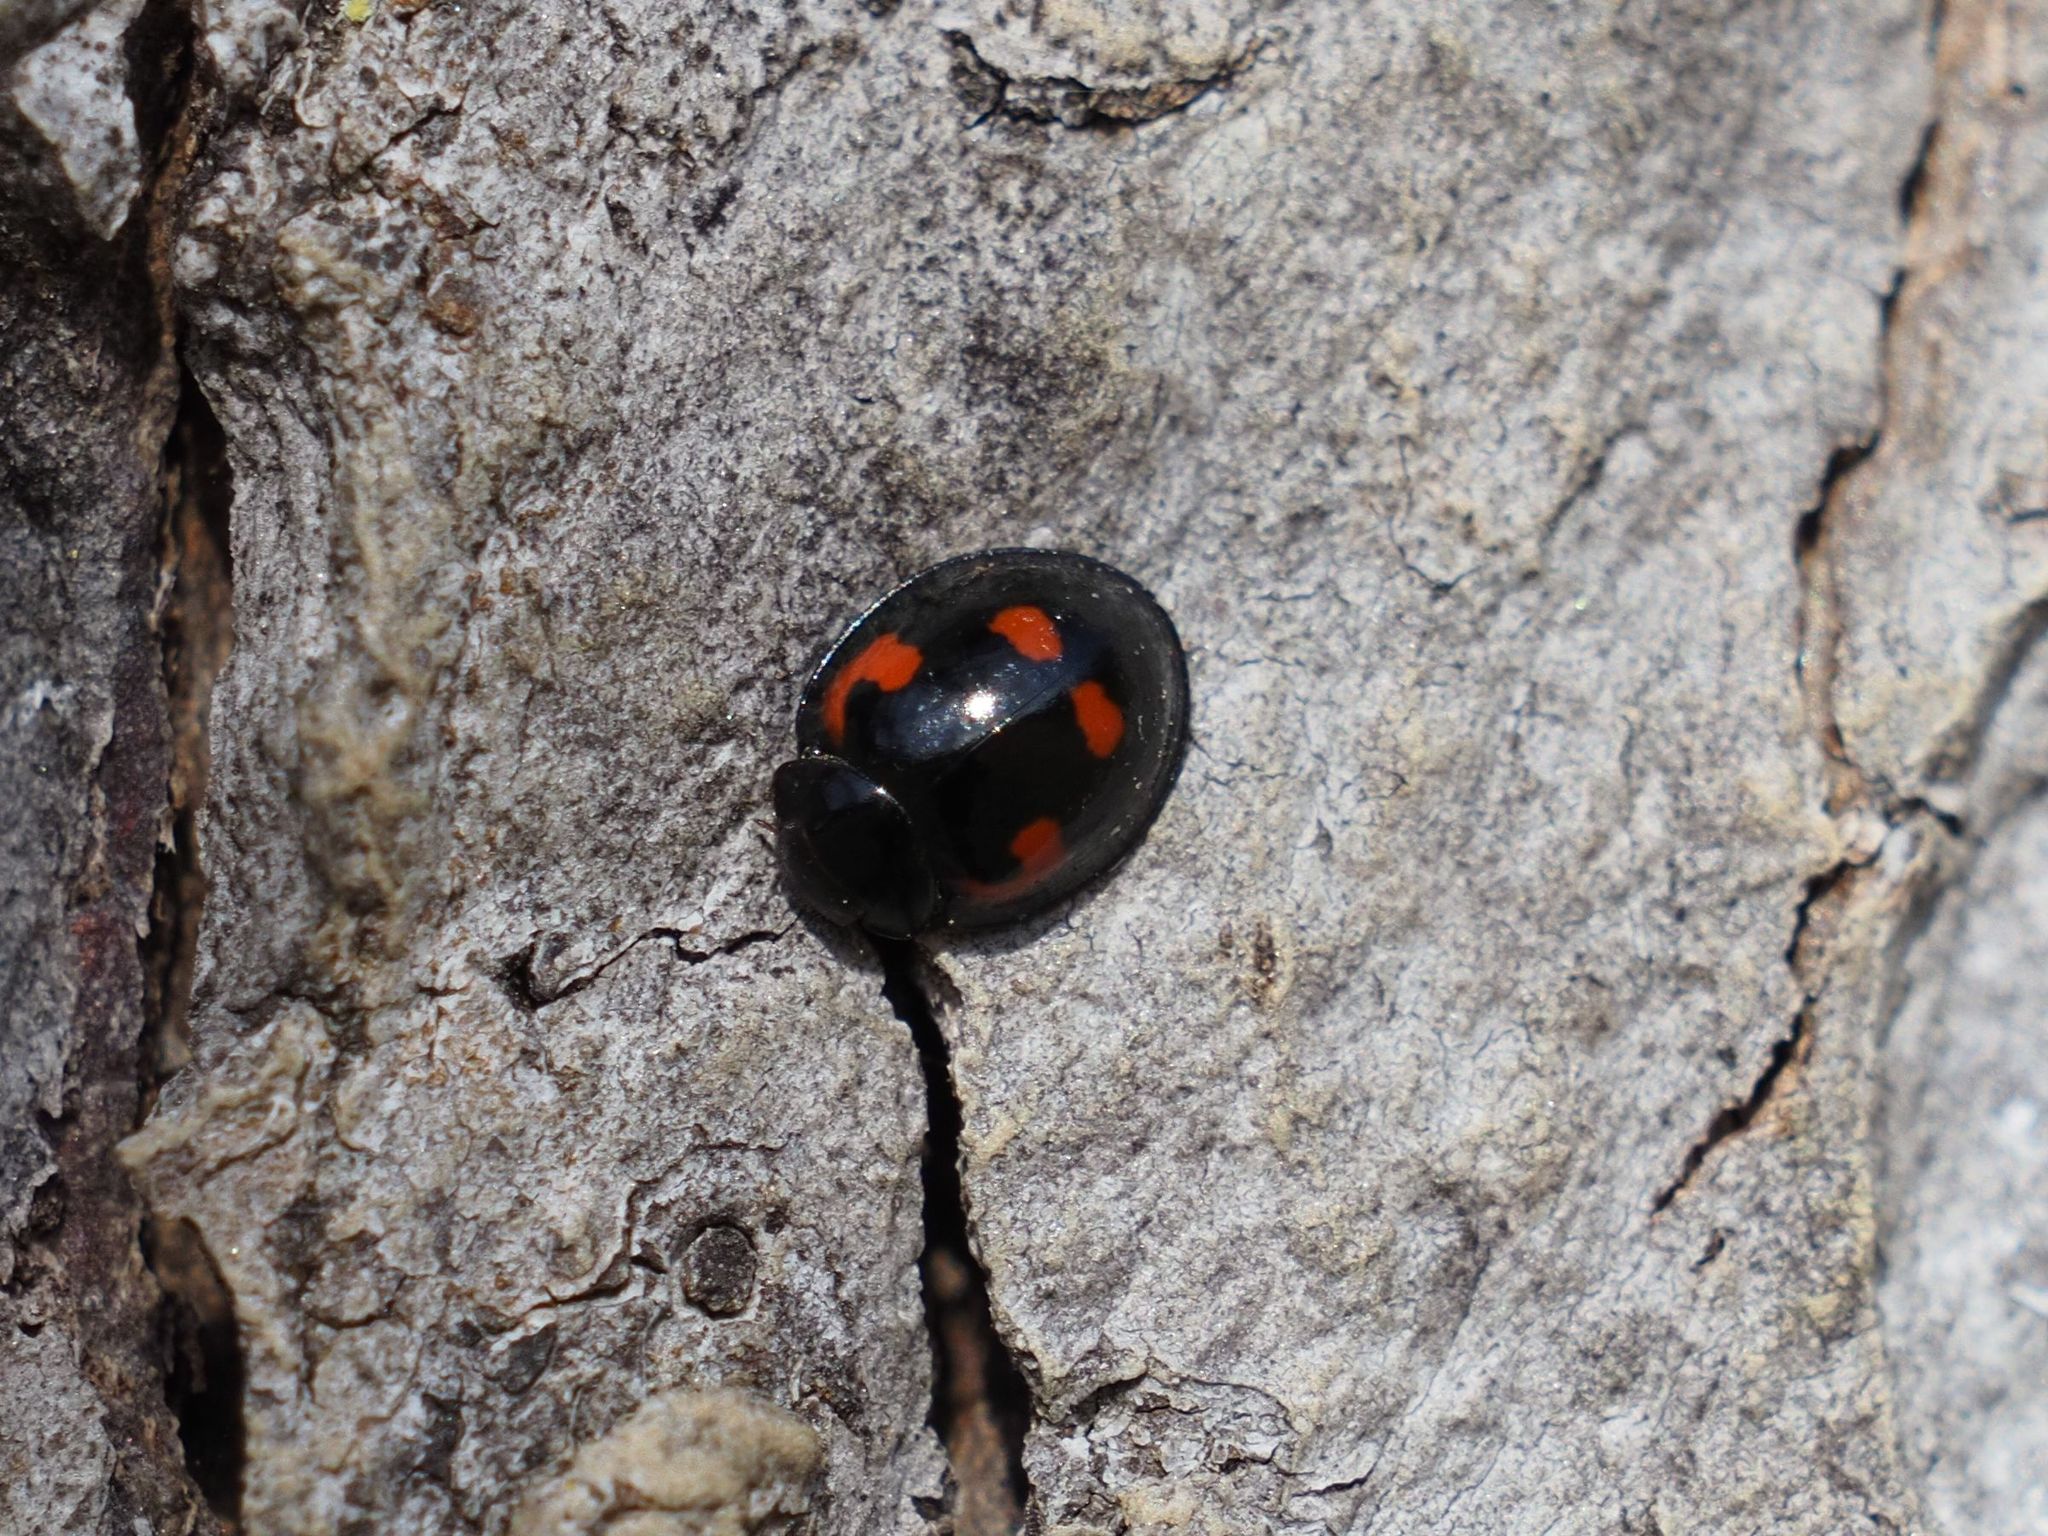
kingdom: Animalia
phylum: Arthropoda
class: Insecta
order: Coleoptera
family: Coccinellidae
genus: Brumus
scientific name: Brumus quadripustulatus
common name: Ladybird beetle
